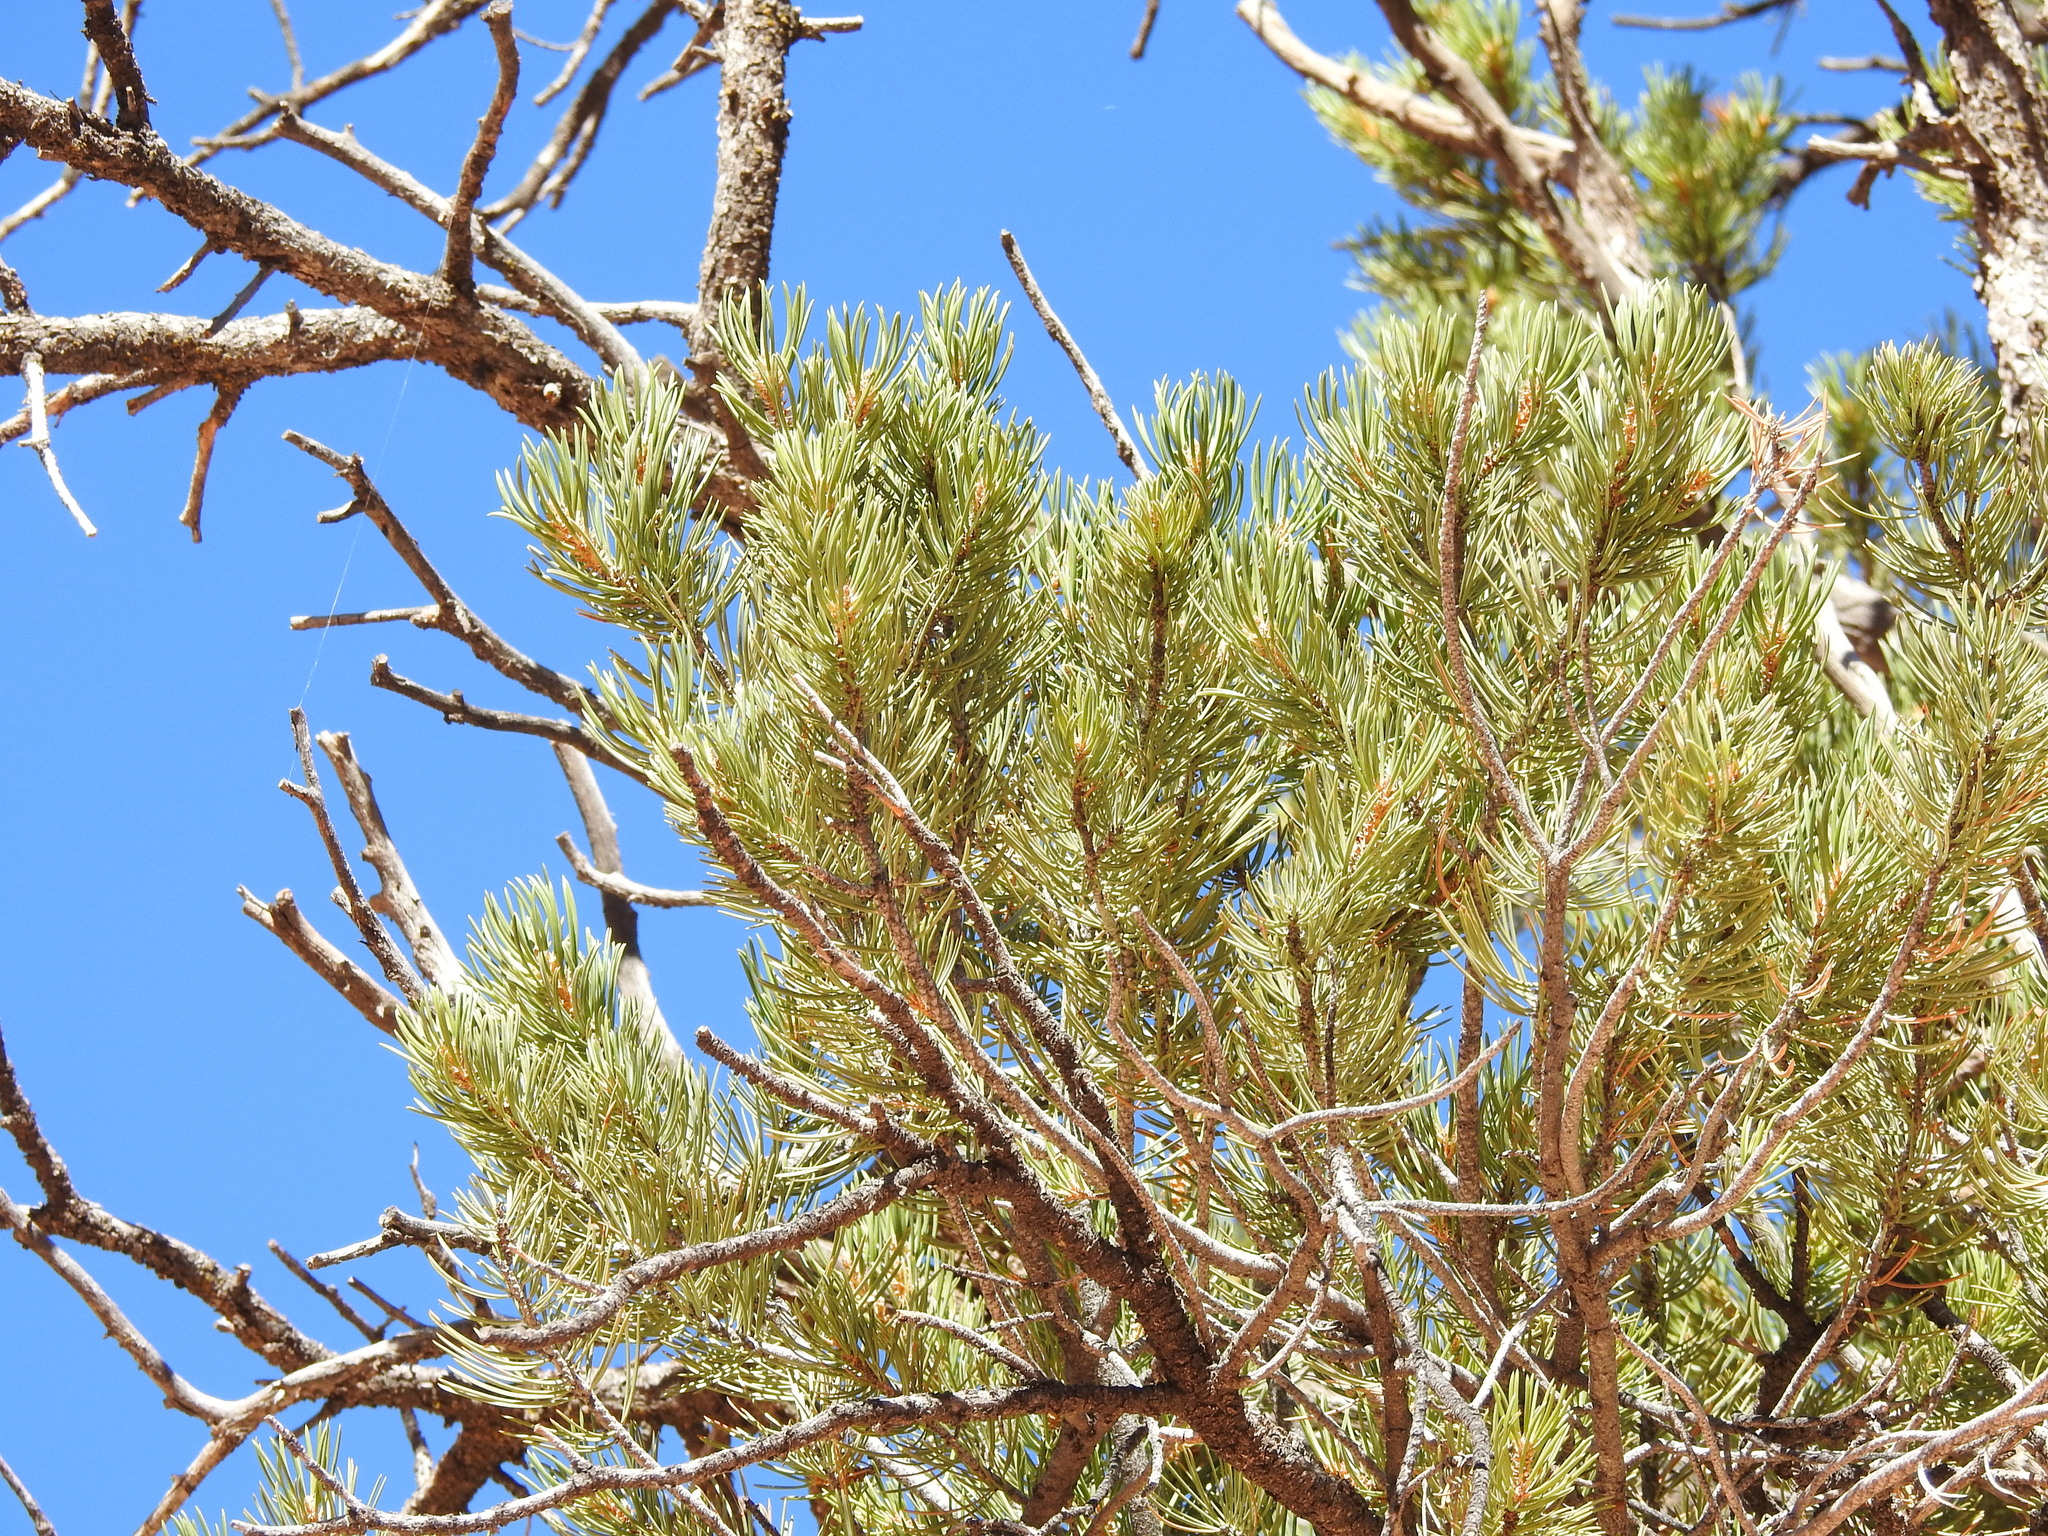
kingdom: Plantae
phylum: Tracheophyta
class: Pinopsida
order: Pinales
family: Pinaceae
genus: Pinus
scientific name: Pinus edulis
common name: Colorado pinyon
